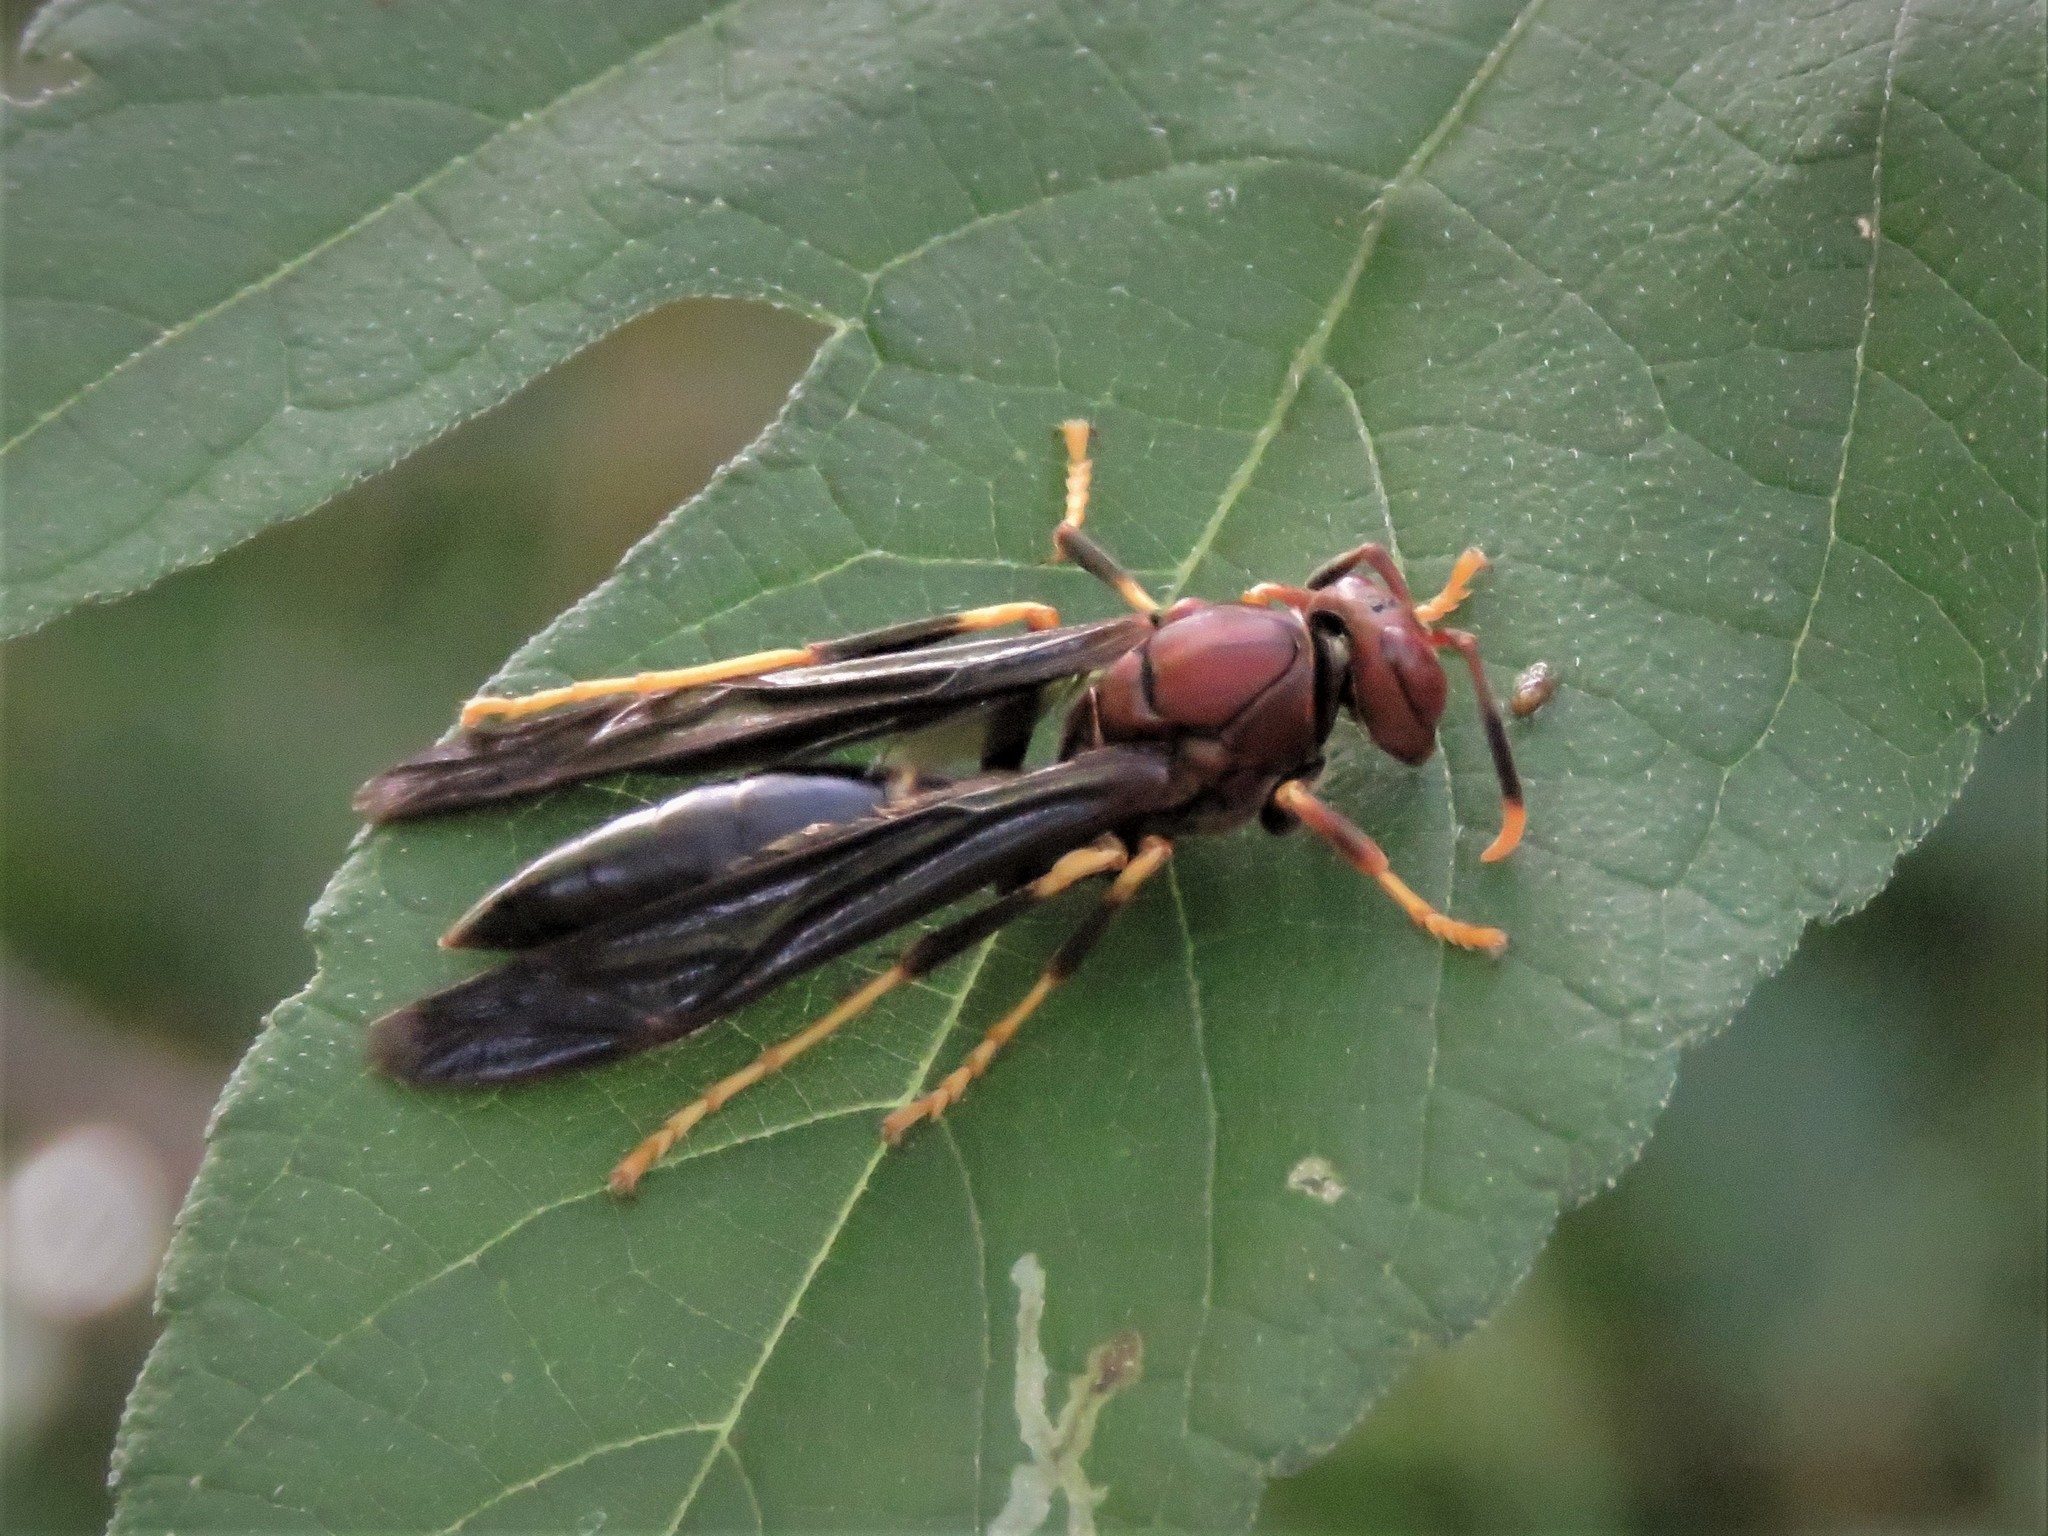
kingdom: Animalia
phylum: Arthropoda
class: Insecta
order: Hymenoptera
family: Eumenidae
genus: Polistes
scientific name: Polistes annularis
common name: Ringed paper wasp
